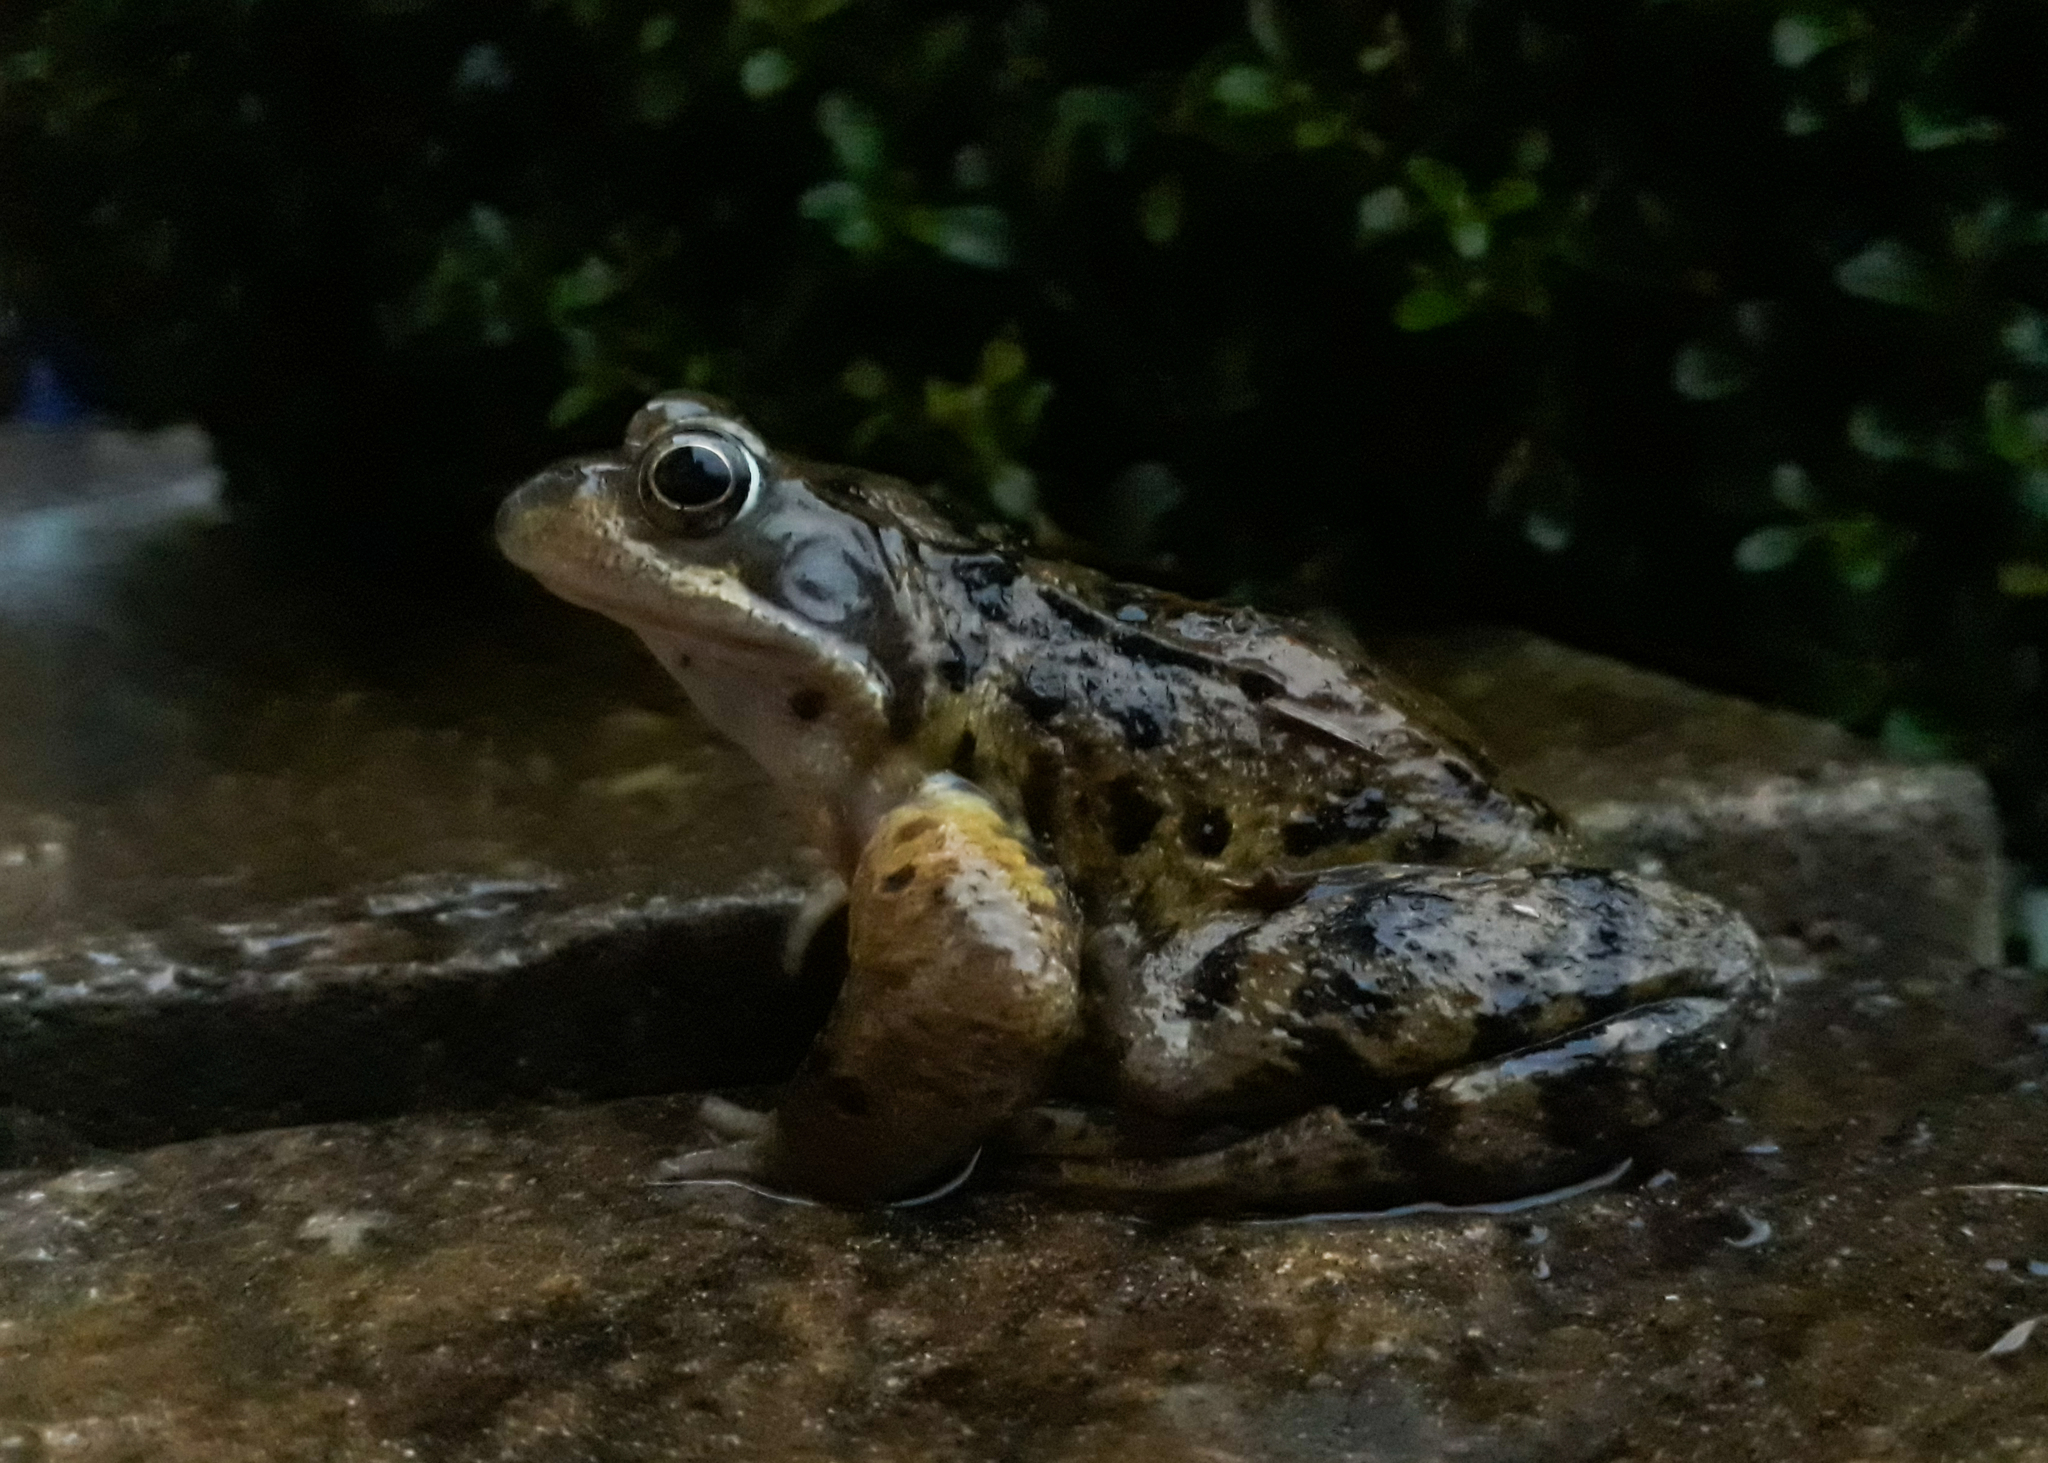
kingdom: Animalia
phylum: Chordata
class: Amphibia
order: Anura
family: Ranidae
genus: Rana
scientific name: Rana temporaria
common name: Common frog
